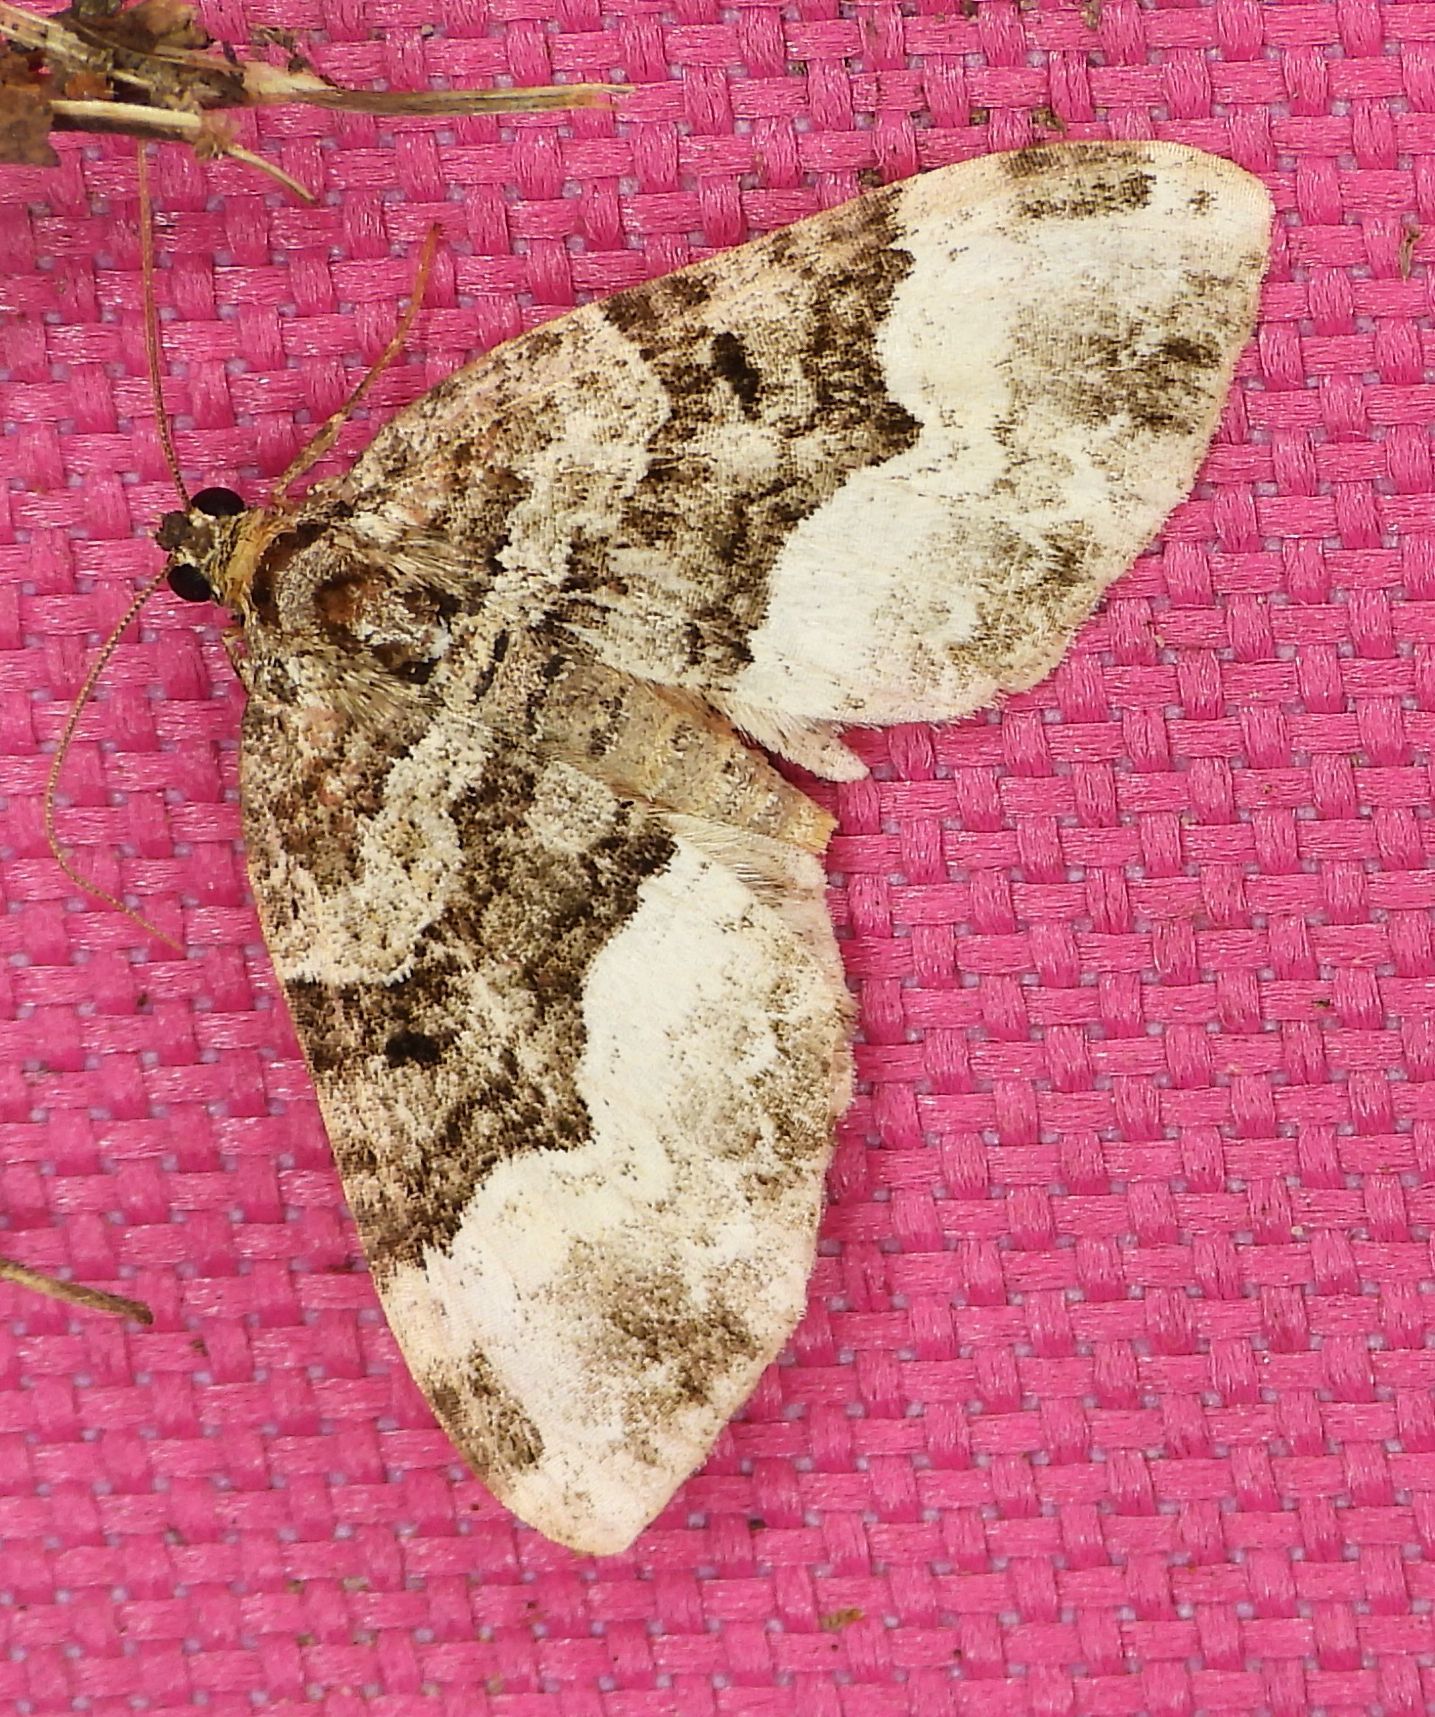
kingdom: Animalia
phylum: Arthropoda
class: Insecta
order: Lepidoptera
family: Geometridae
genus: Euphyia
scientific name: Euphyia intermediata
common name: Sharp-angled carpet
